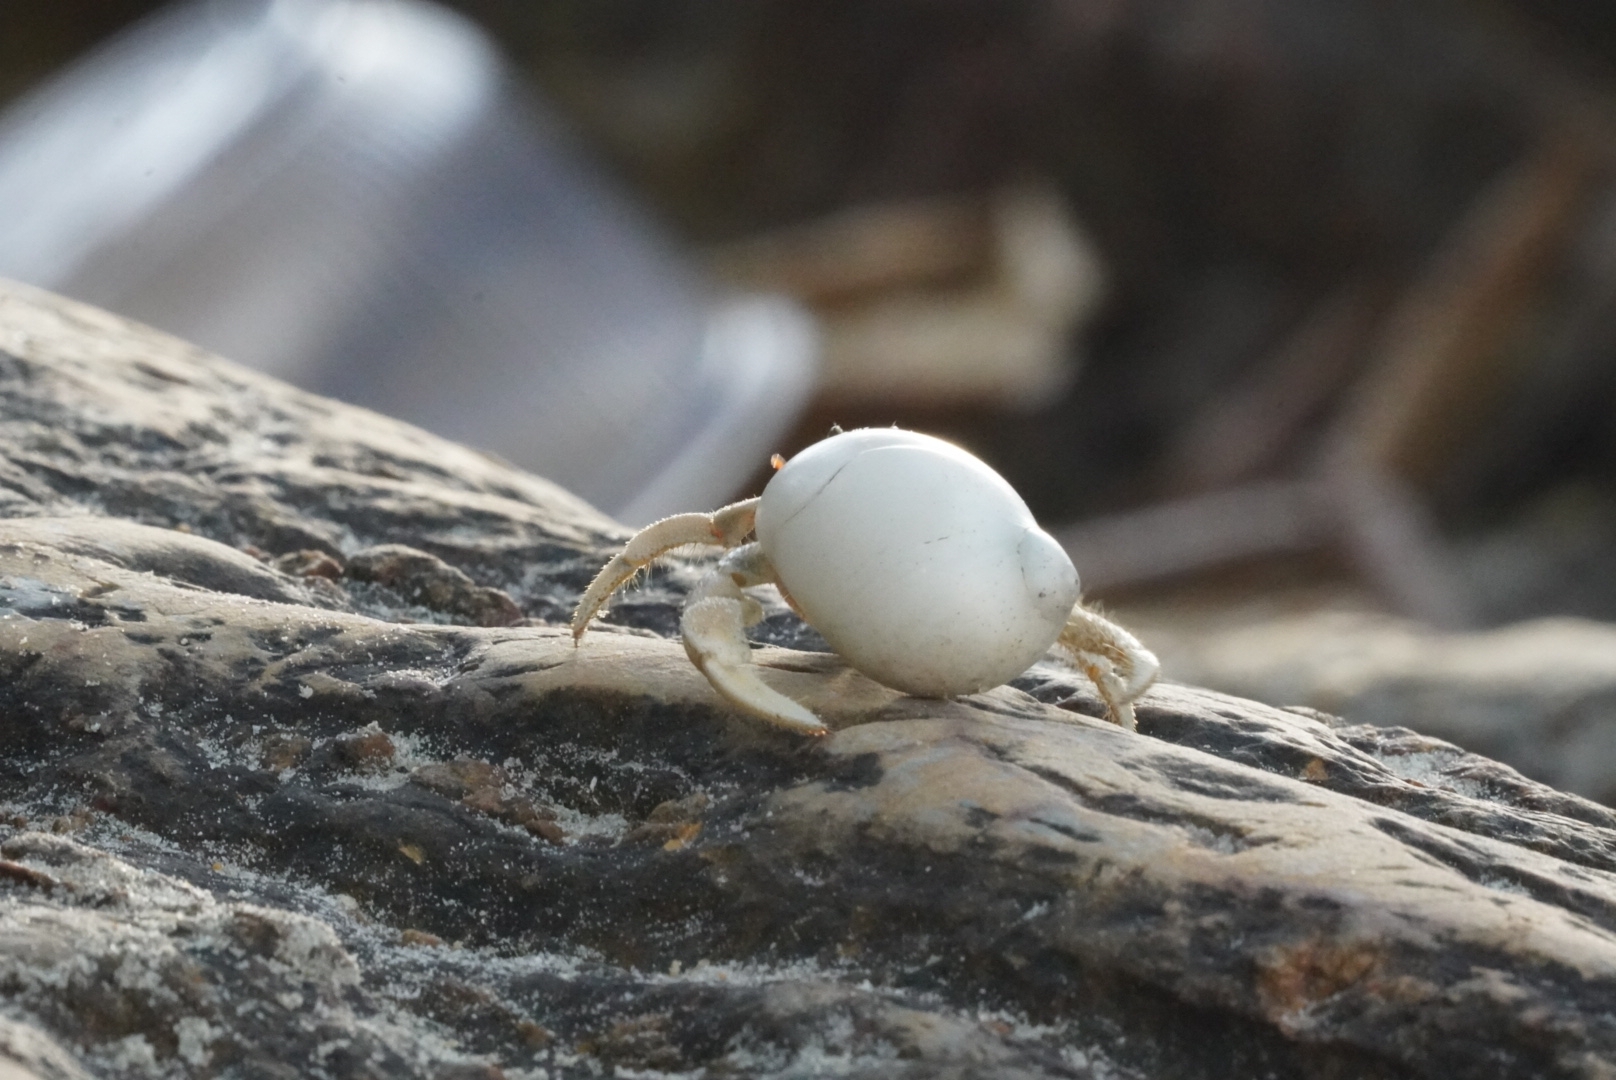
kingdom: Animalia
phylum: Arthropoda
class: Malacostraca
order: Decapoda
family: Coenobitidae
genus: Coenobita
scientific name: Coenobita rugosus
